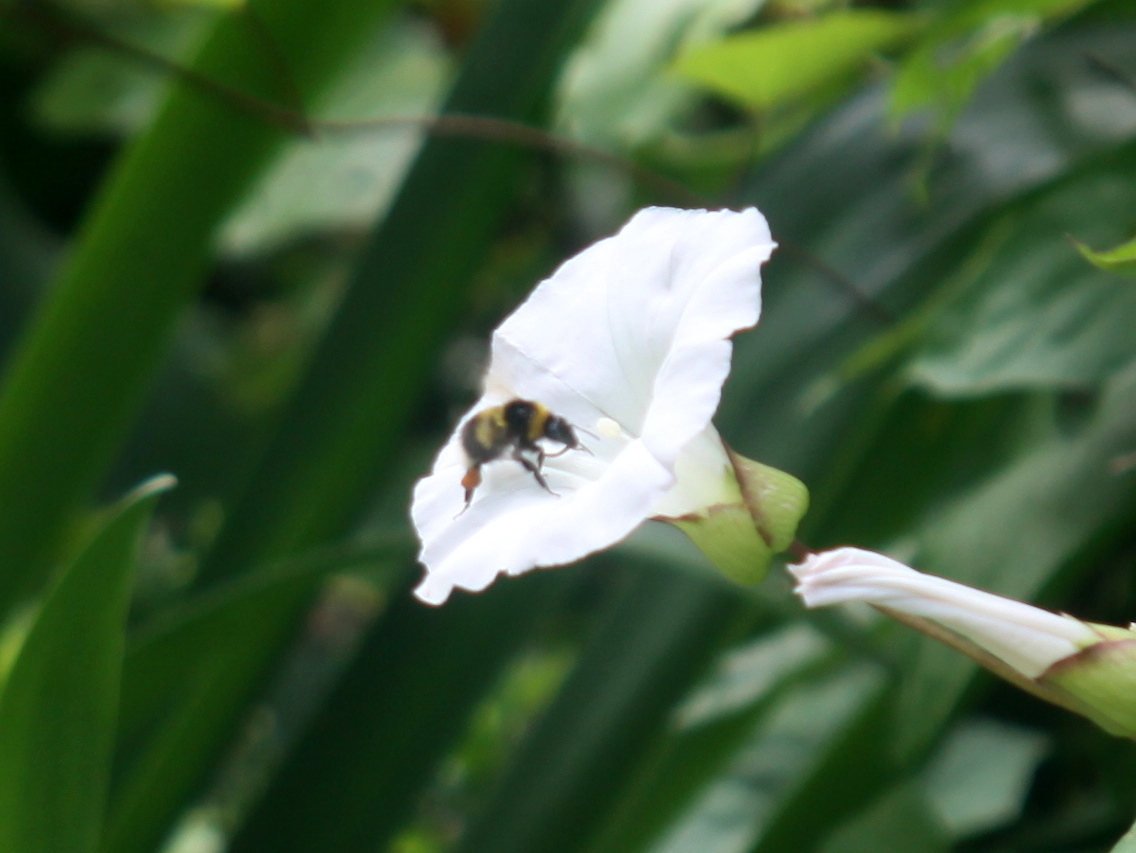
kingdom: Animalia
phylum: Arthropoda
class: Insecta
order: Hymenoptera
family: Apidae
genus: Megabombus
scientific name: Megabombus
